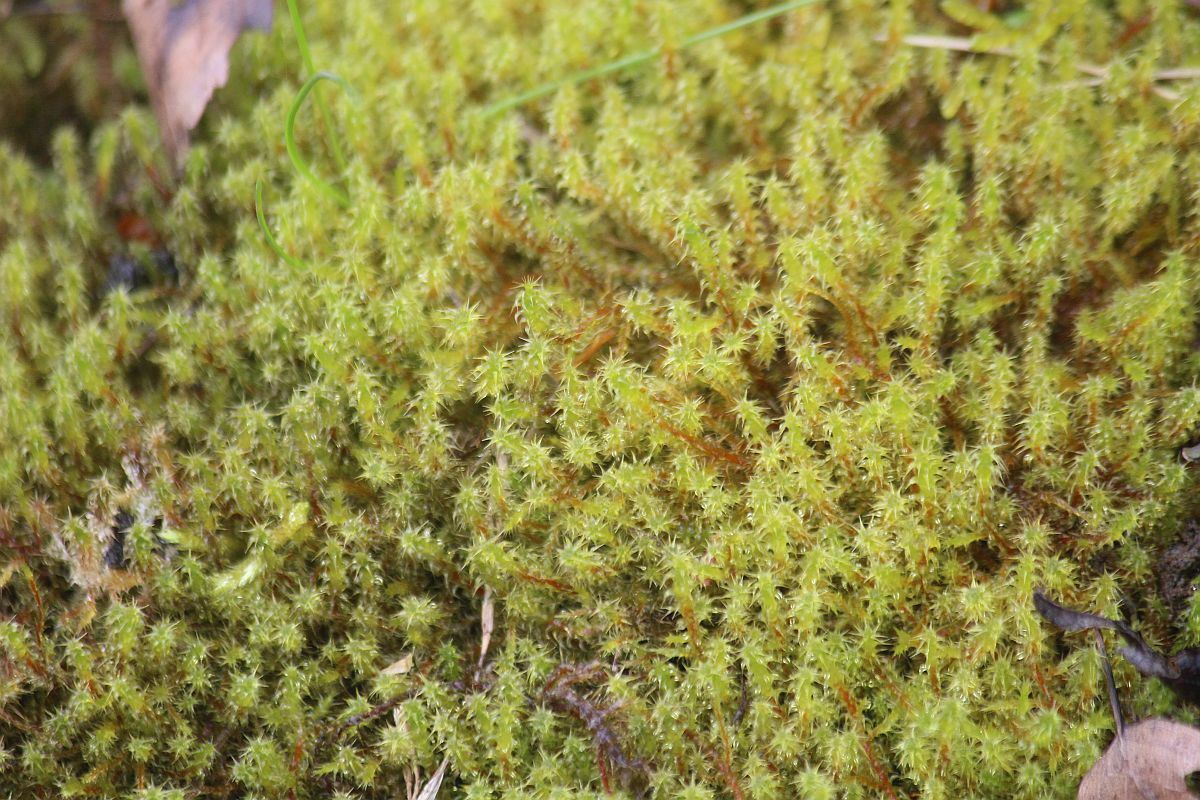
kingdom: Plantae
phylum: Bryophyta
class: Bryopsida
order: Hypnales
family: Hylocomiaceae
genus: Rhytidiadelphus
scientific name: Rhytidiadelphus squarrosus
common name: Springy turf-moss
